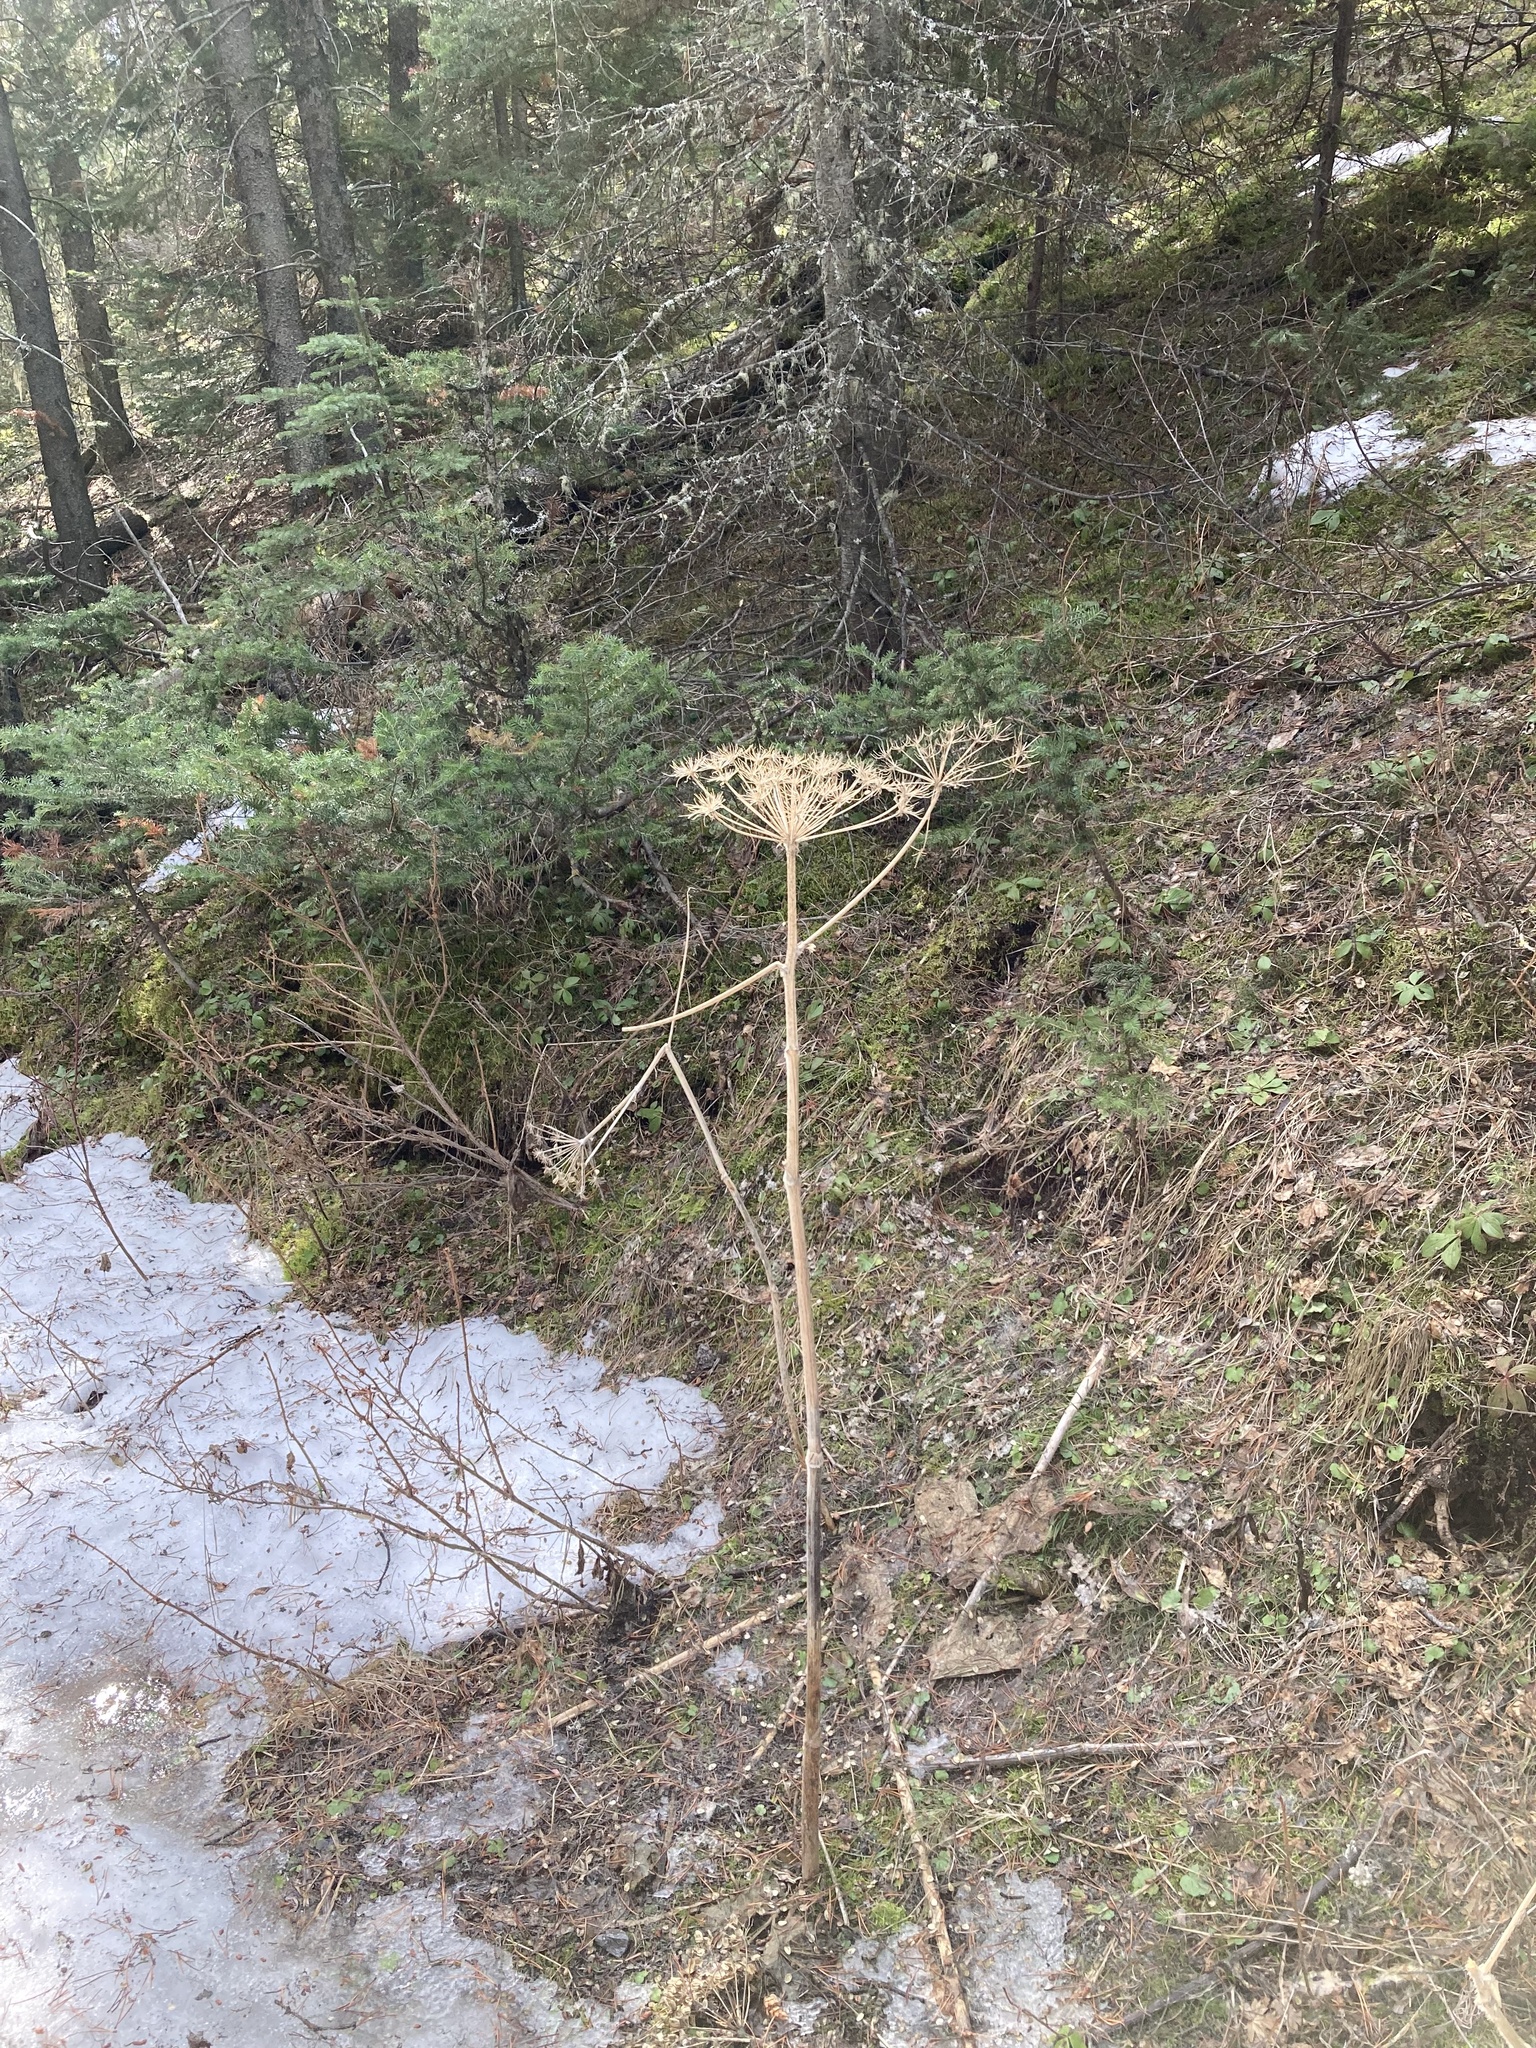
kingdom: Plantae
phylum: Tracheophyta
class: Magnoliopsida
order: Apiales
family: Apiaceae
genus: Heracleum
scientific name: Heracleum maximum
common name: American cow parsnip
